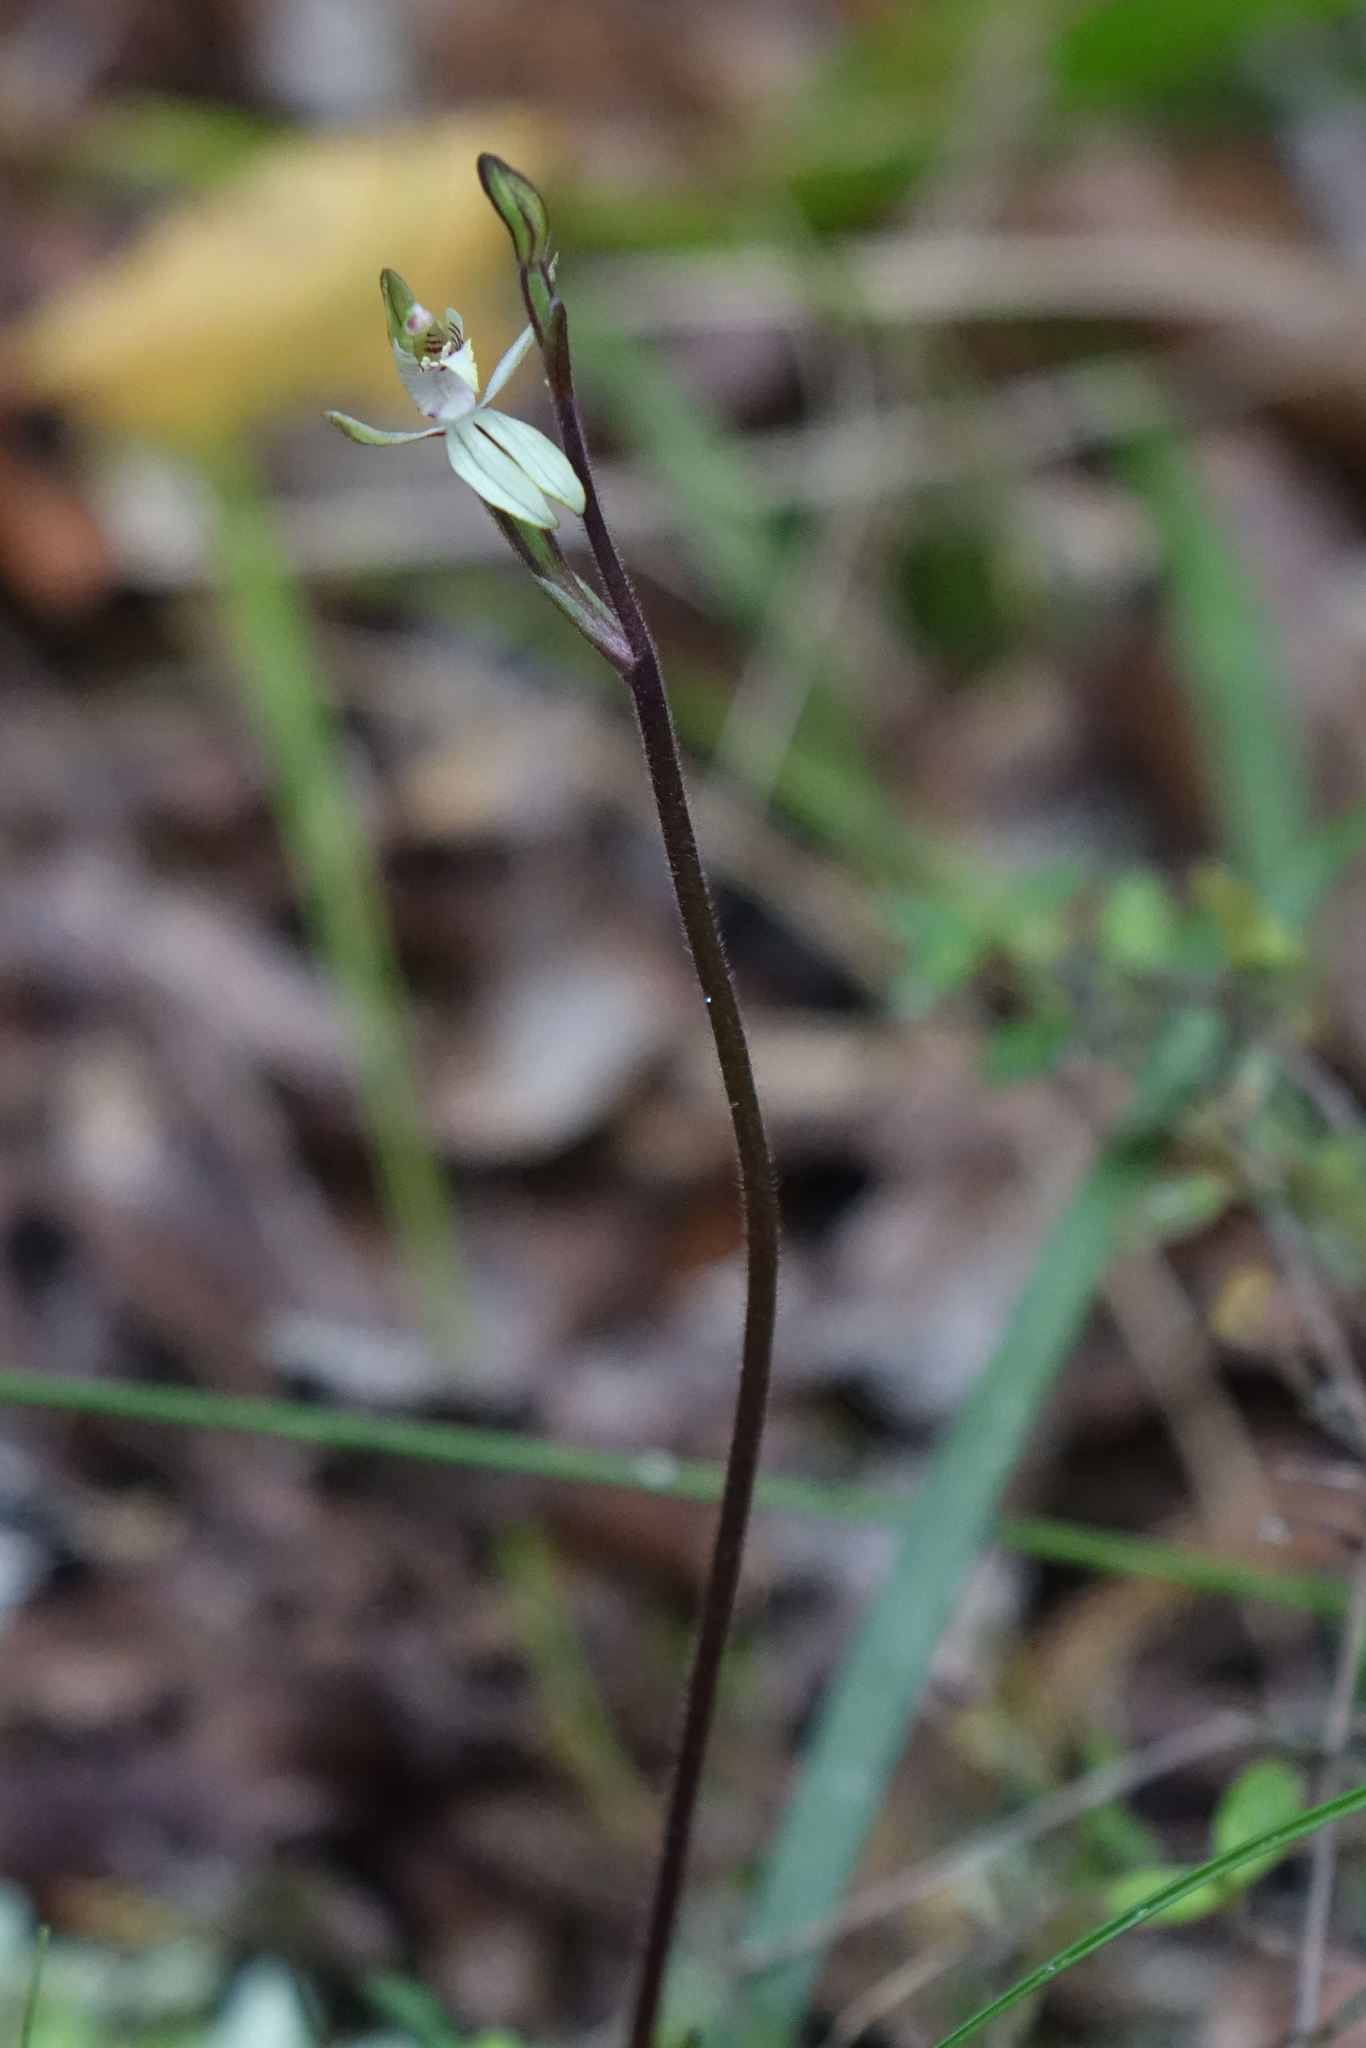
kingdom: Plantae
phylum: Tracheophyta
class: Liliopsida
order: Asparagales
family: Orchidaceae
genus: Caladenia
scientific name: Caladenia chlorostyla
